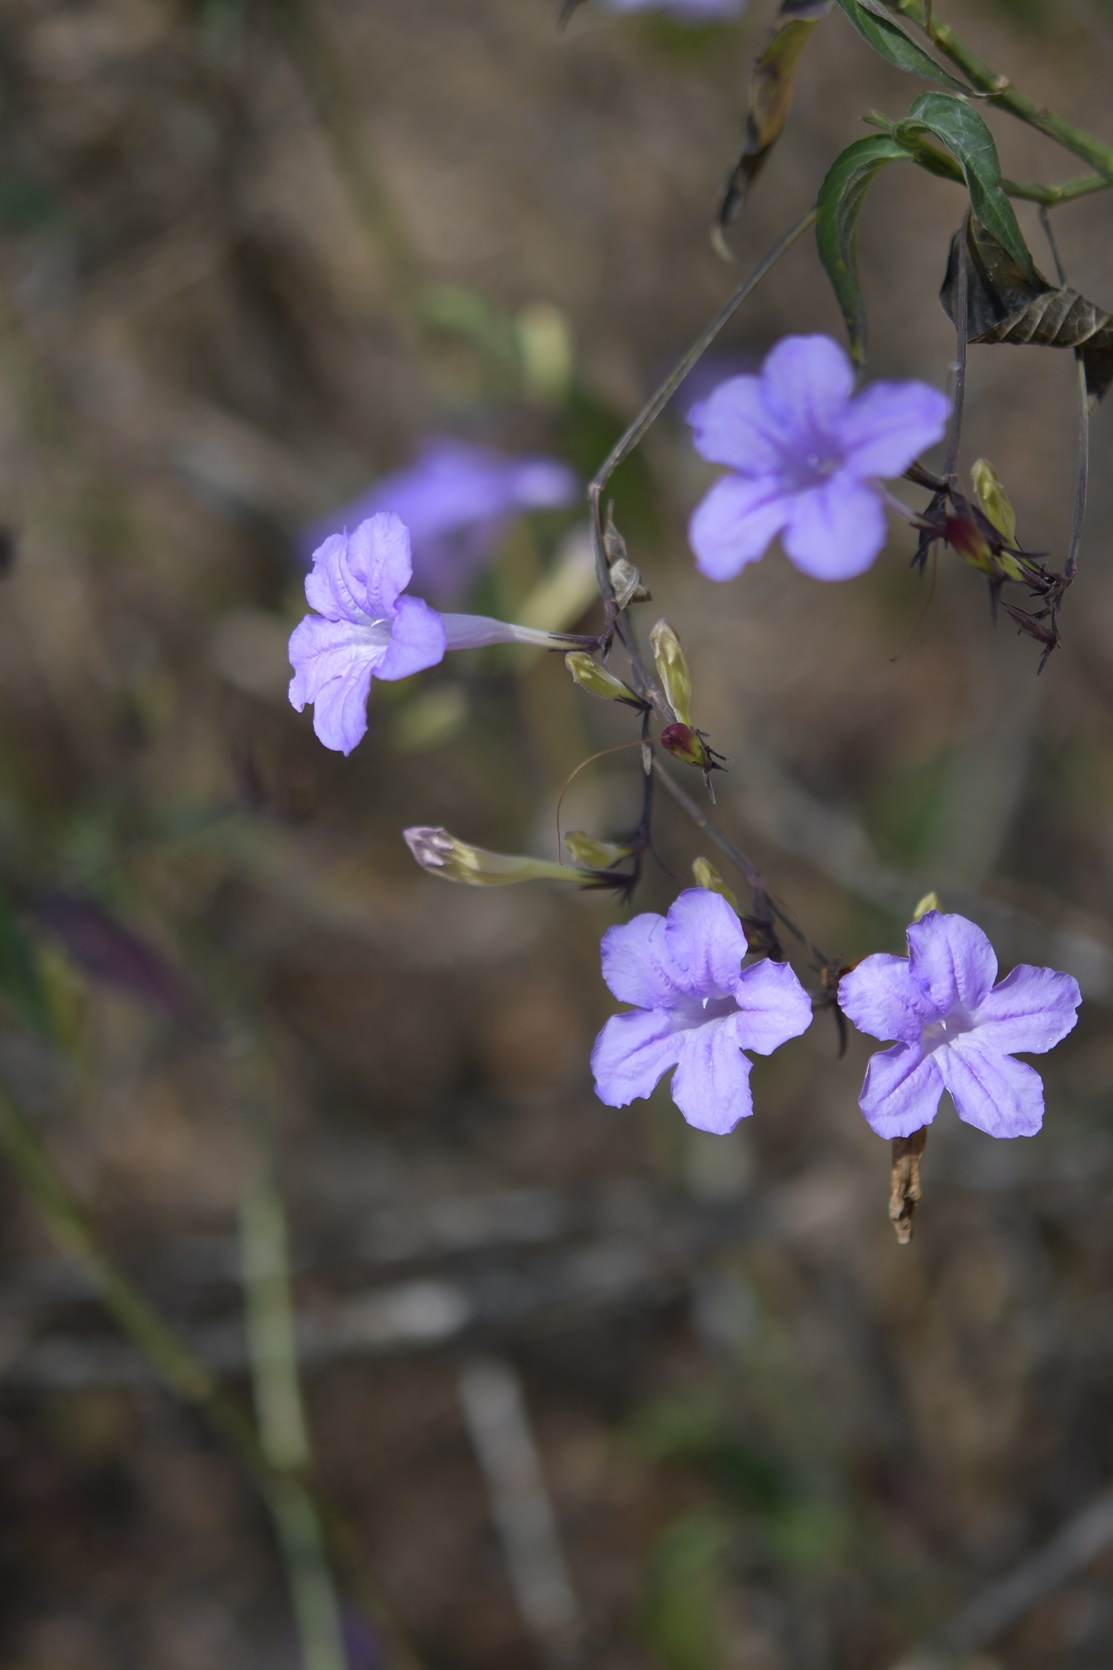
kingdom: Plantae
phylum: Tracheophyta
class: Magnoliopsida
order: Lamiales
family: Acanthaceae
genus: Ruellia
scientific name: Ruellia breedlovei
